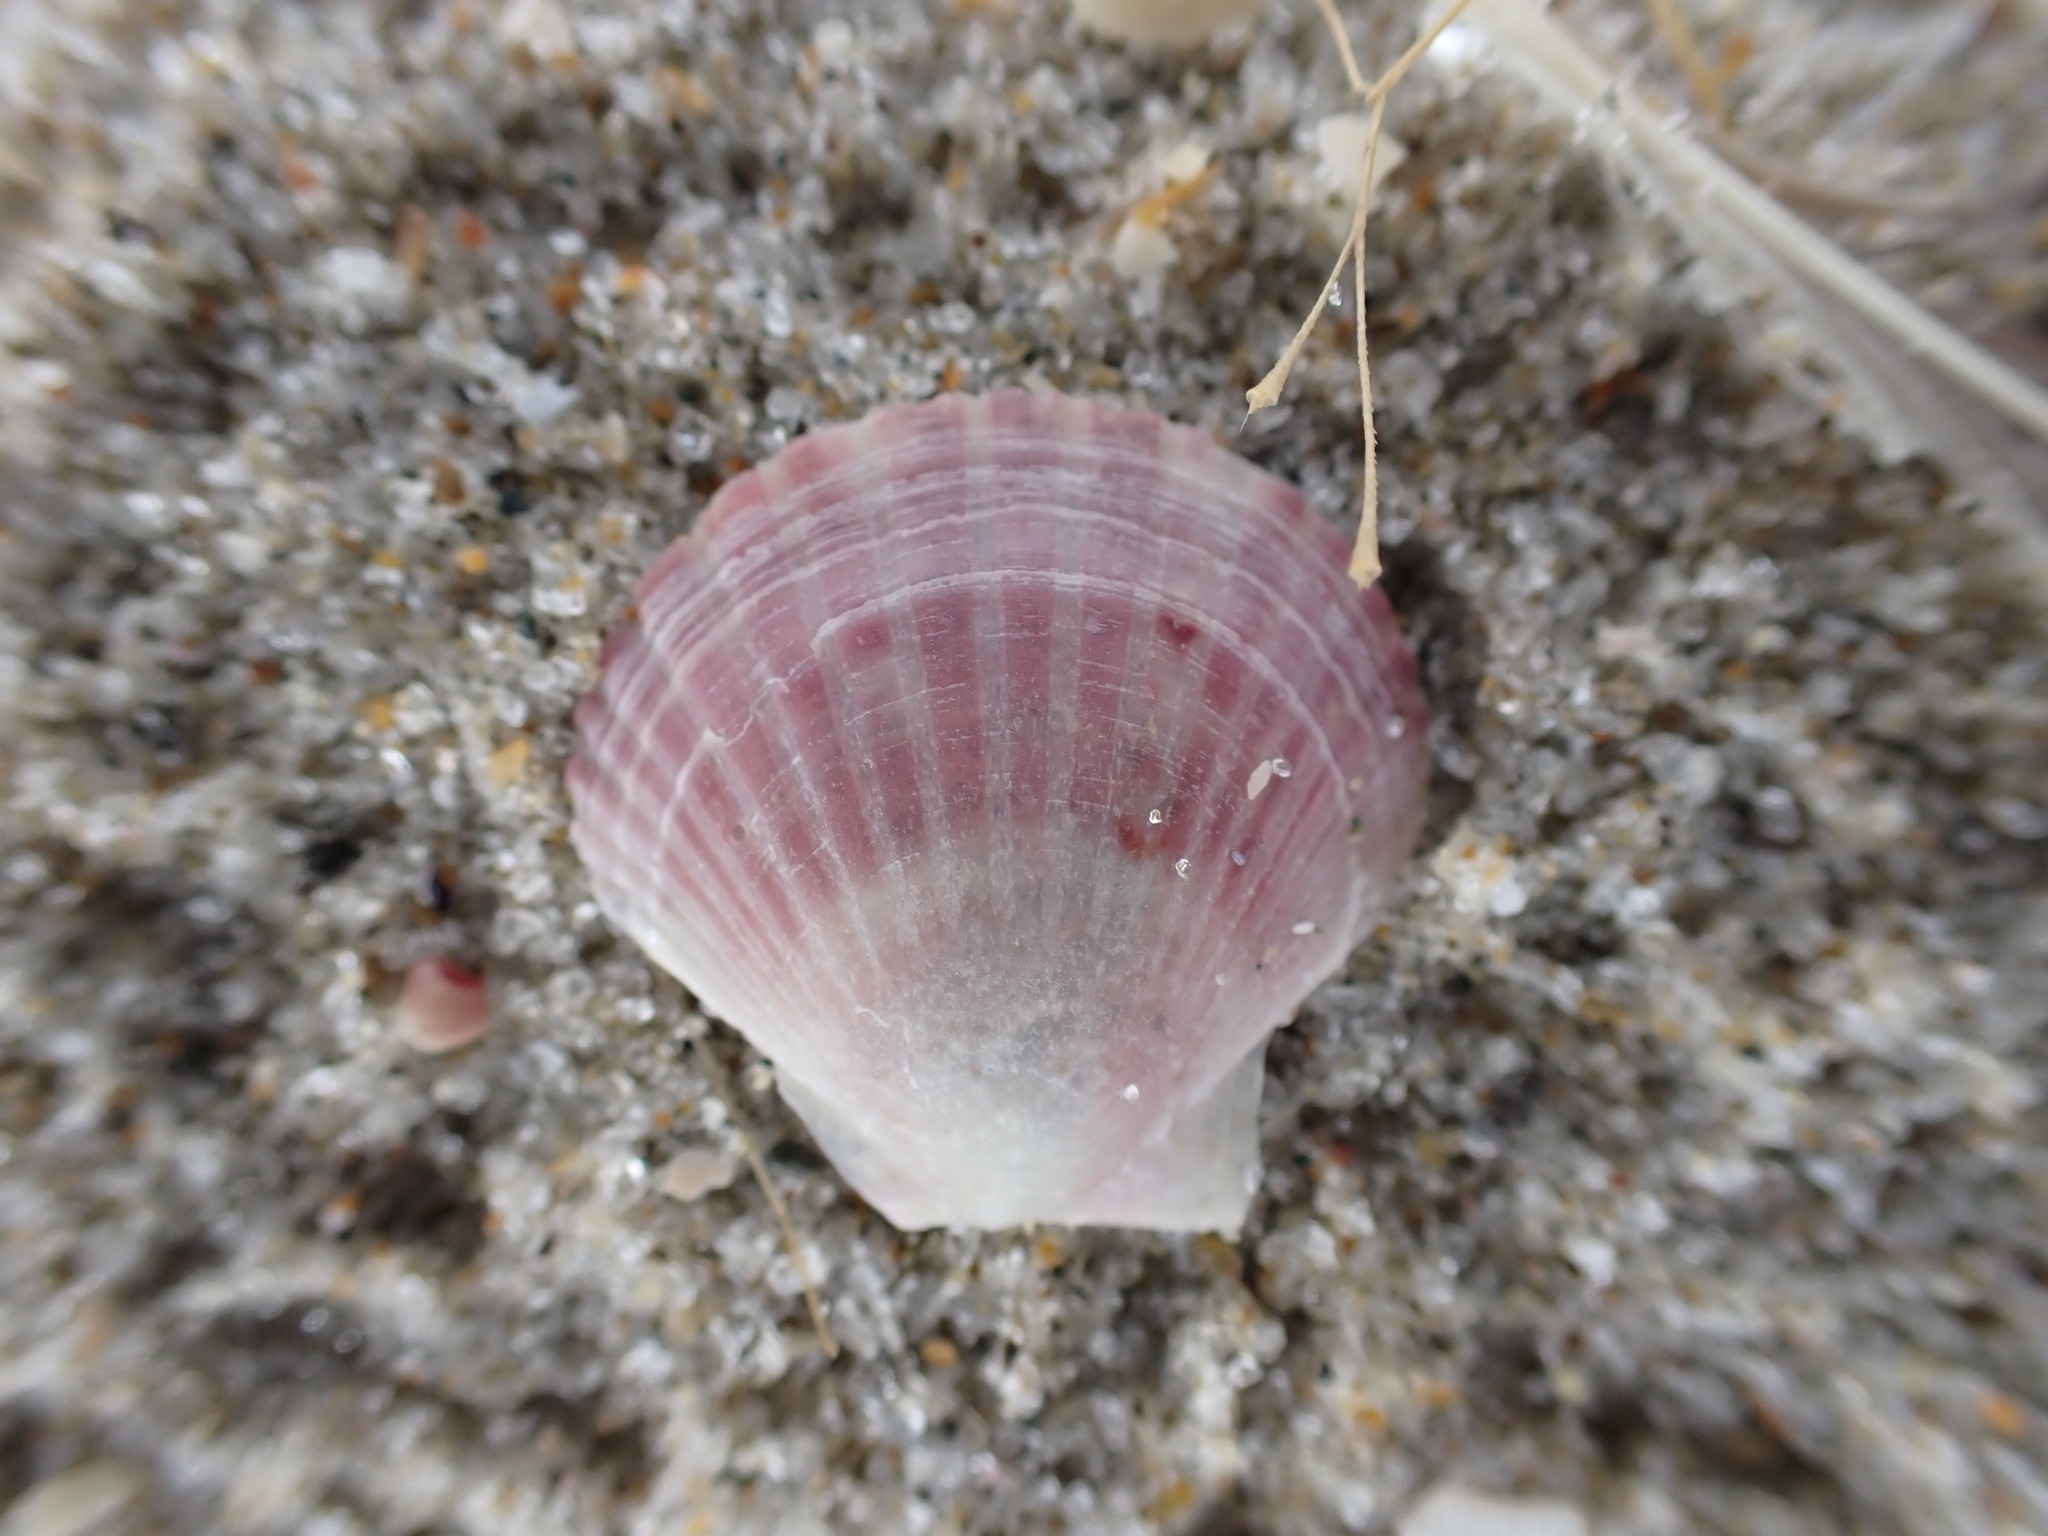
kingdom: Animalia
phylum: Mollusca
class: Bivalvia
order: Pectinida
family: Pectinidae
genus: Pecten
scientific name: Pecten novaezelandiae
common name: New zealand scallop
